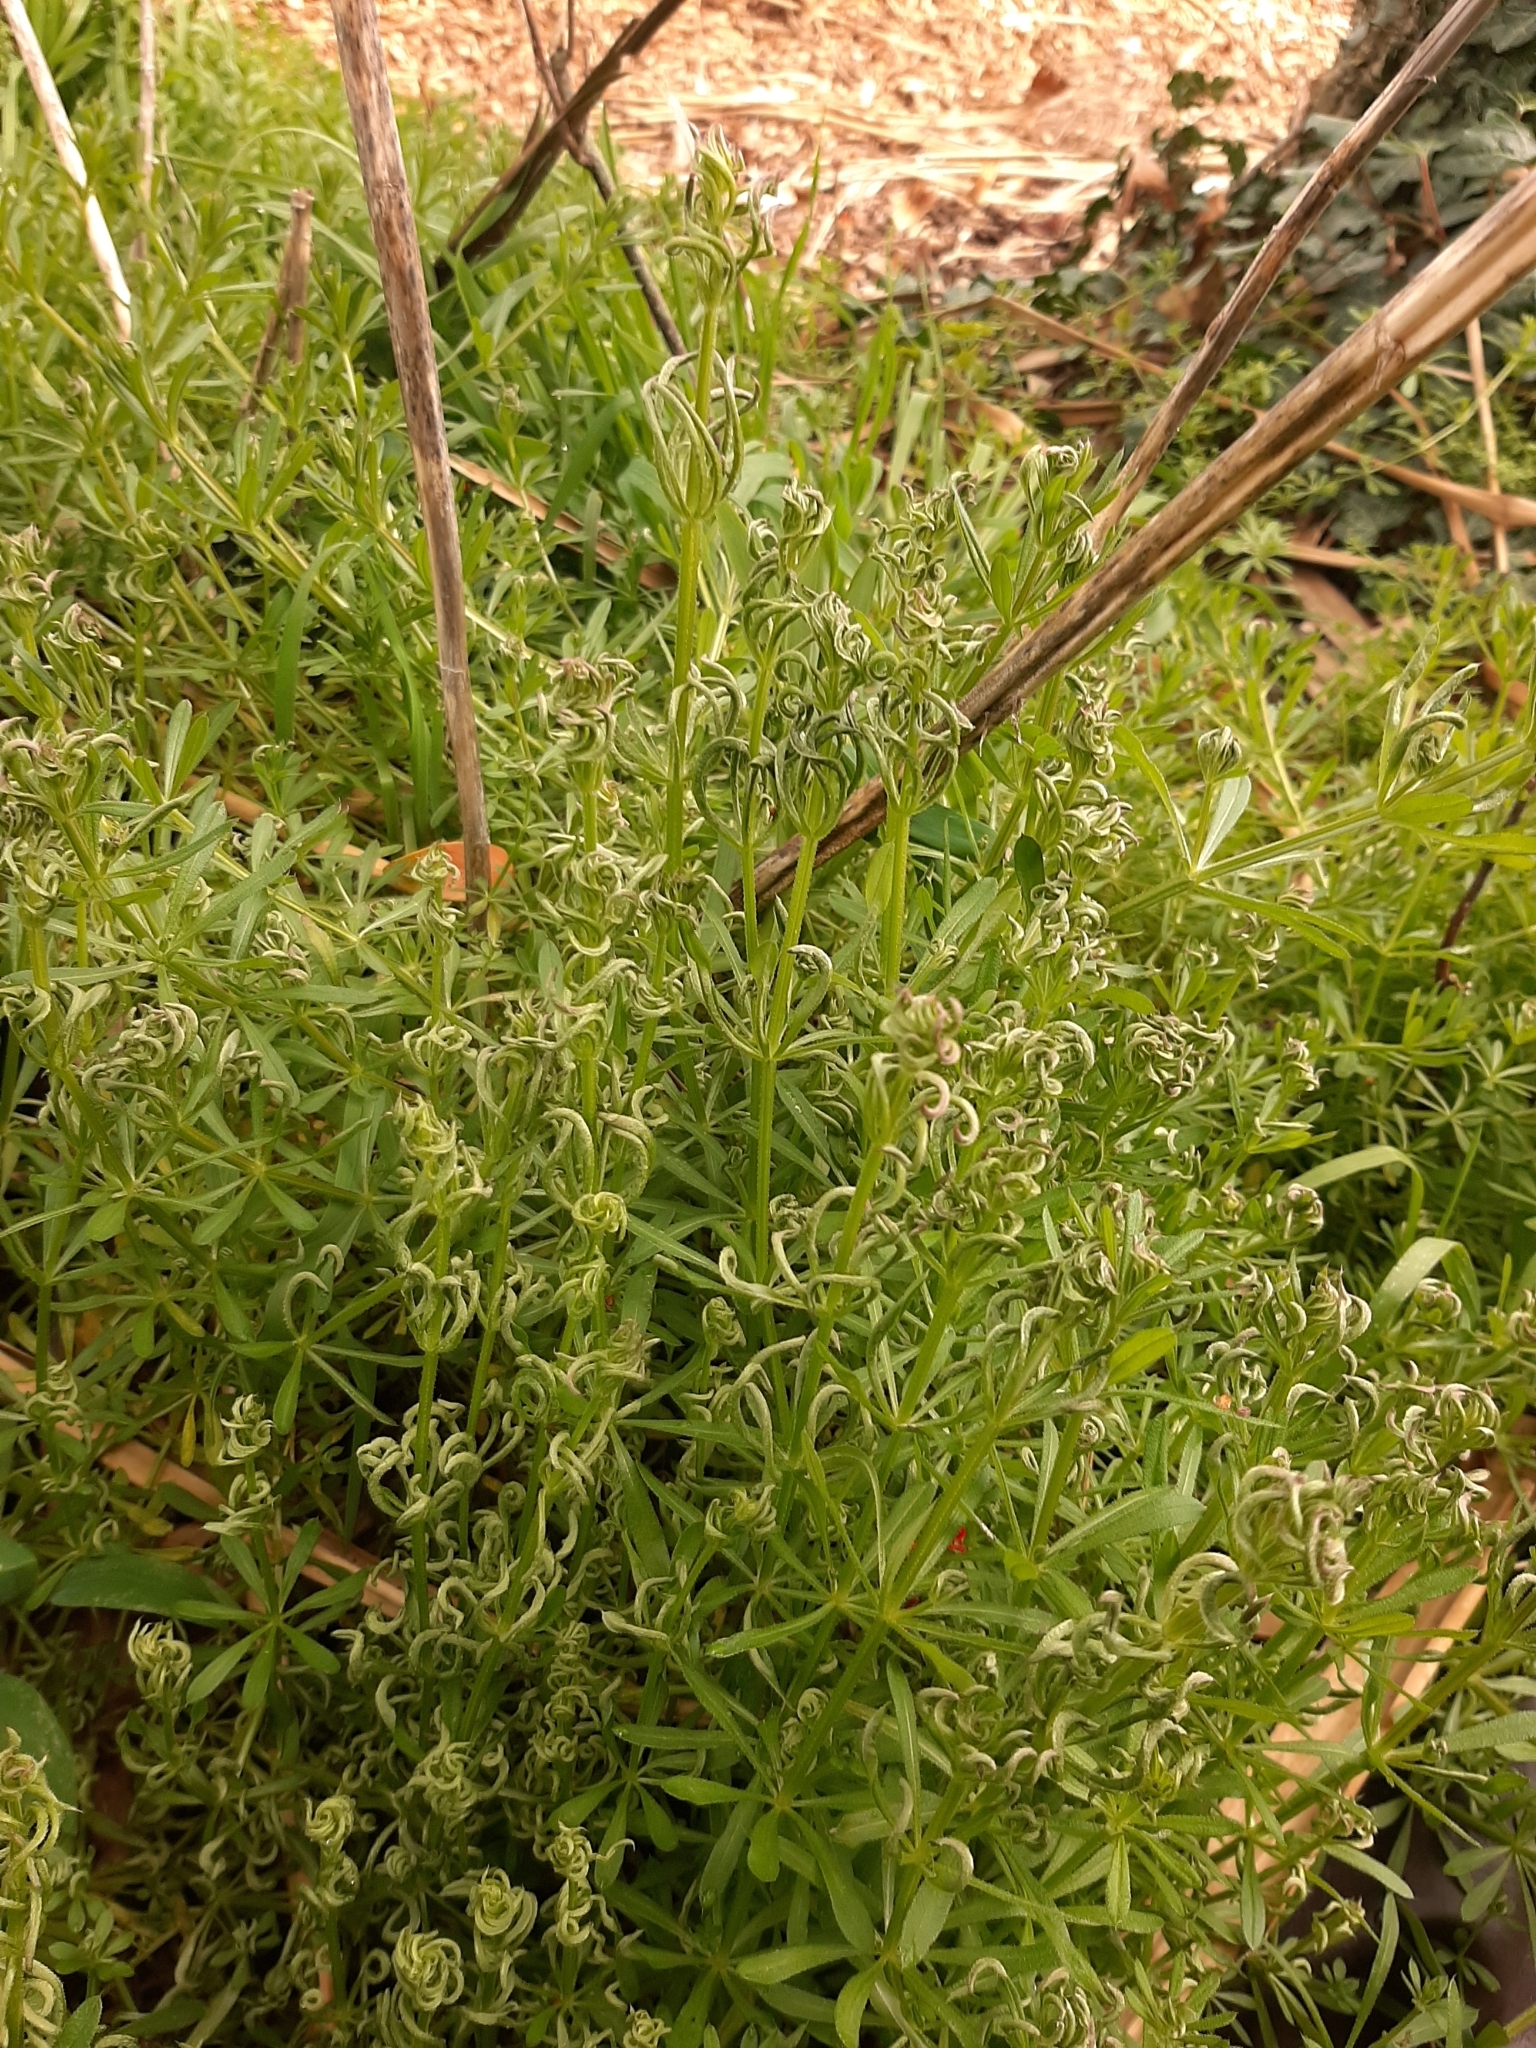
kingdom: Animalia
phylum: Arthropoda
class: Arachnida
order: Trombidiformes
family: Eriophyidae
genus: Cecidophyes
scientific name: Cecidophyes rouhollahi
